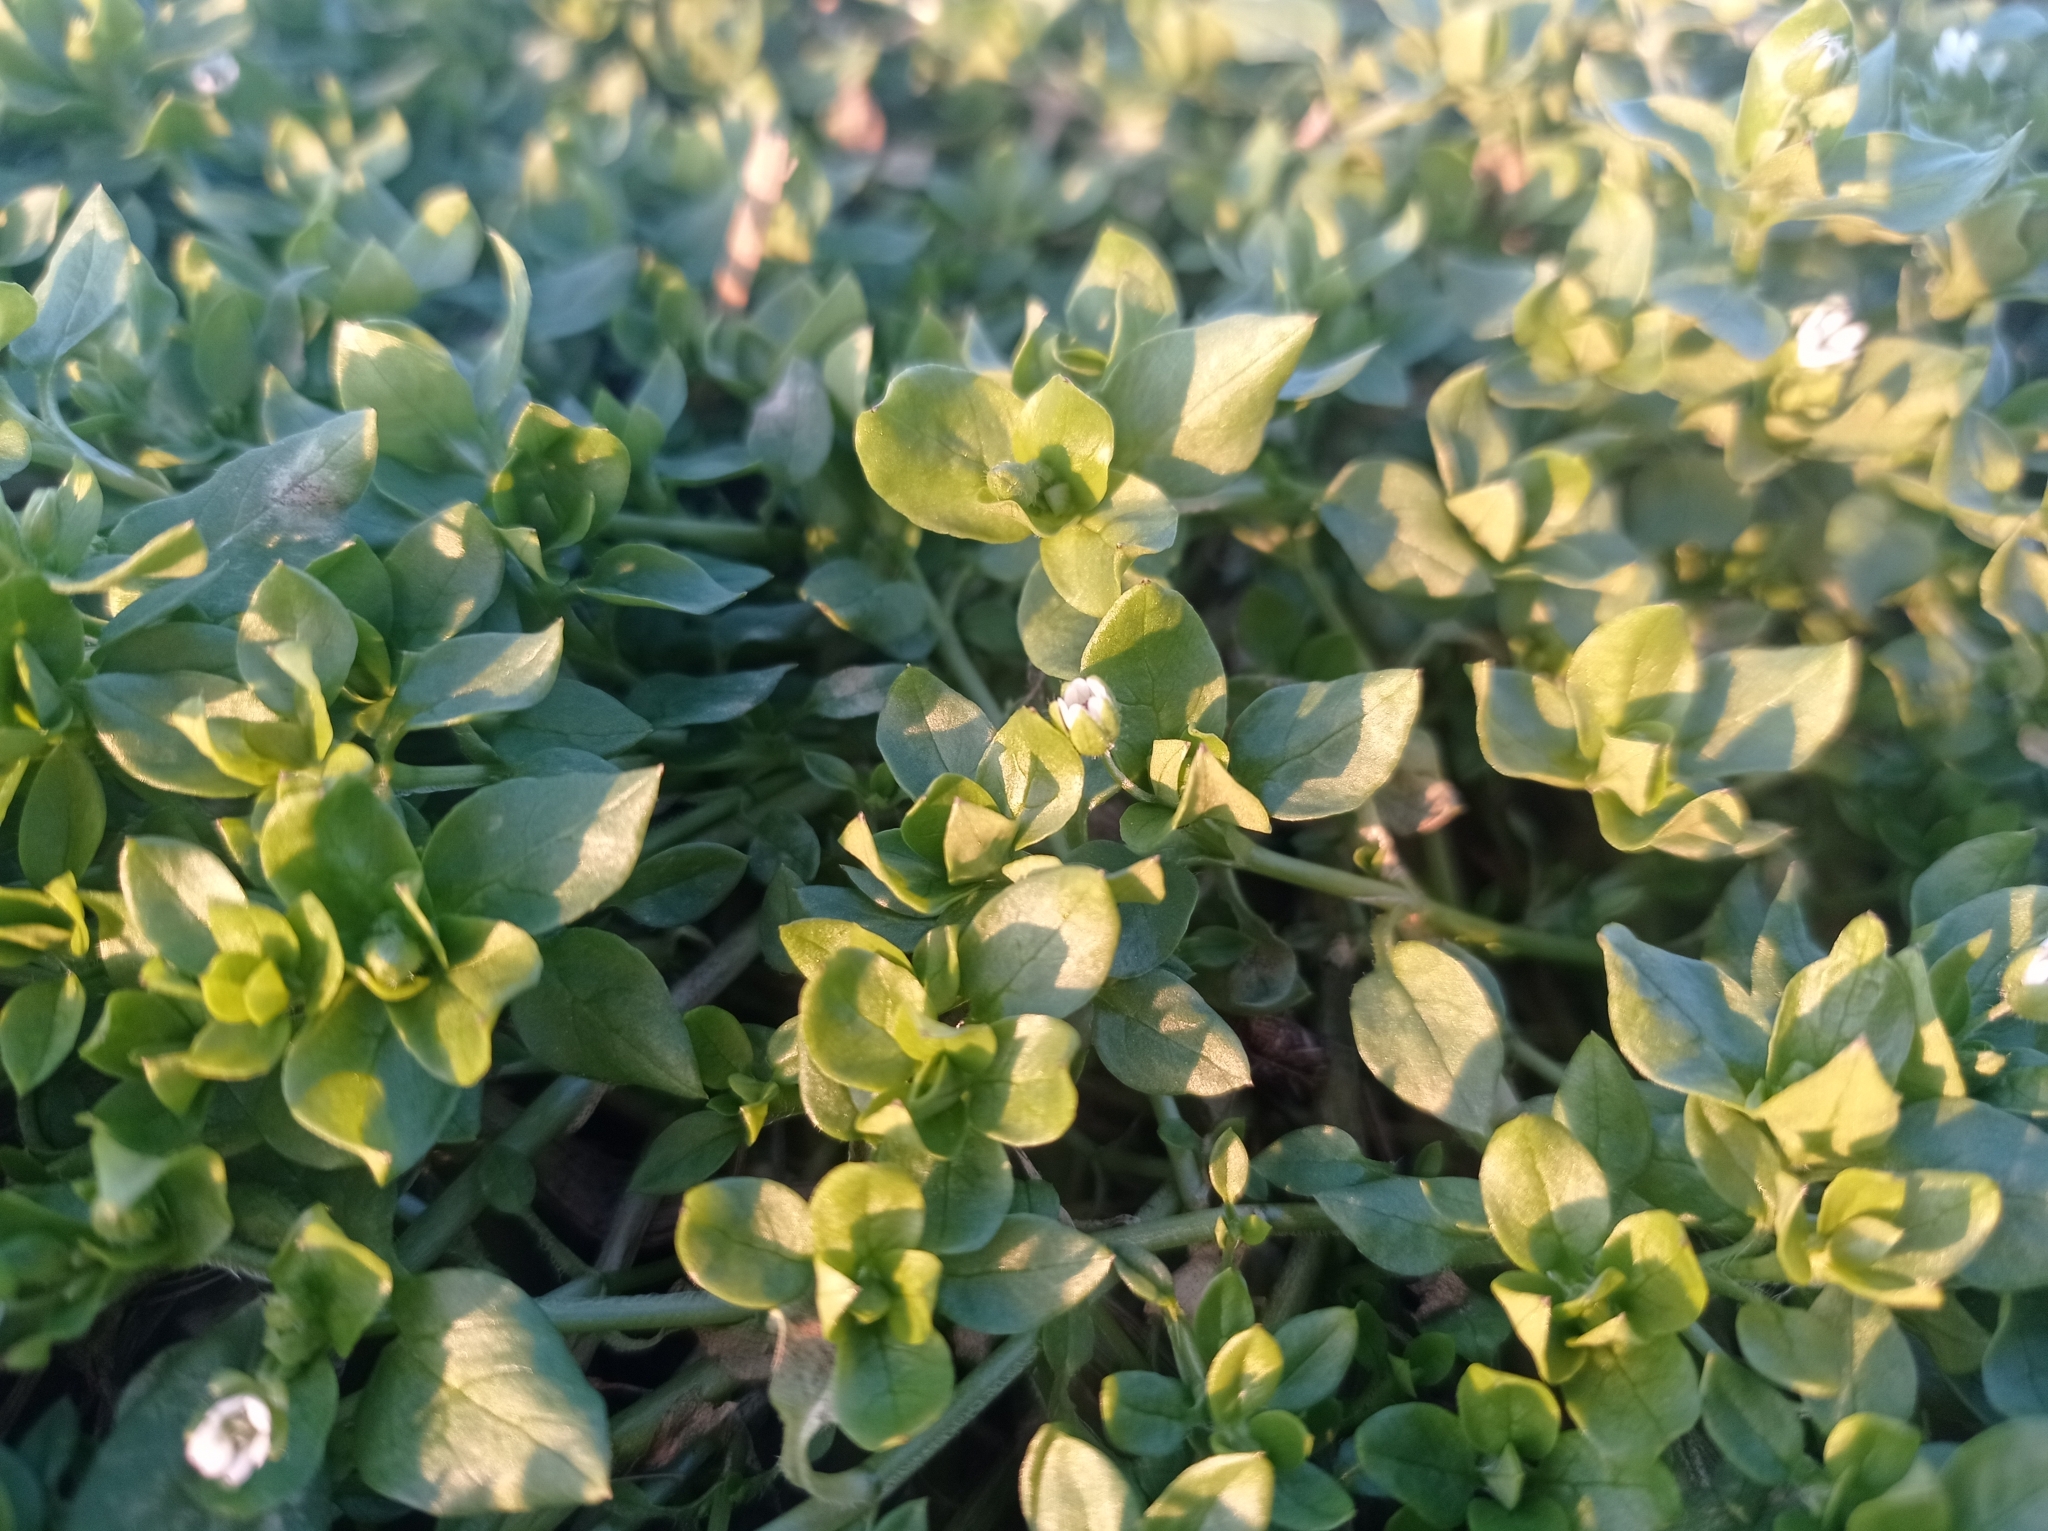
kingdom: Plantae
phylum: Tracheophyta
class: Magnoliopsida
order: Caryophyllales
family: Caryophyllaceae
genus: Stellaria
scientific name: Stellaria media
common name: Common chickweed
